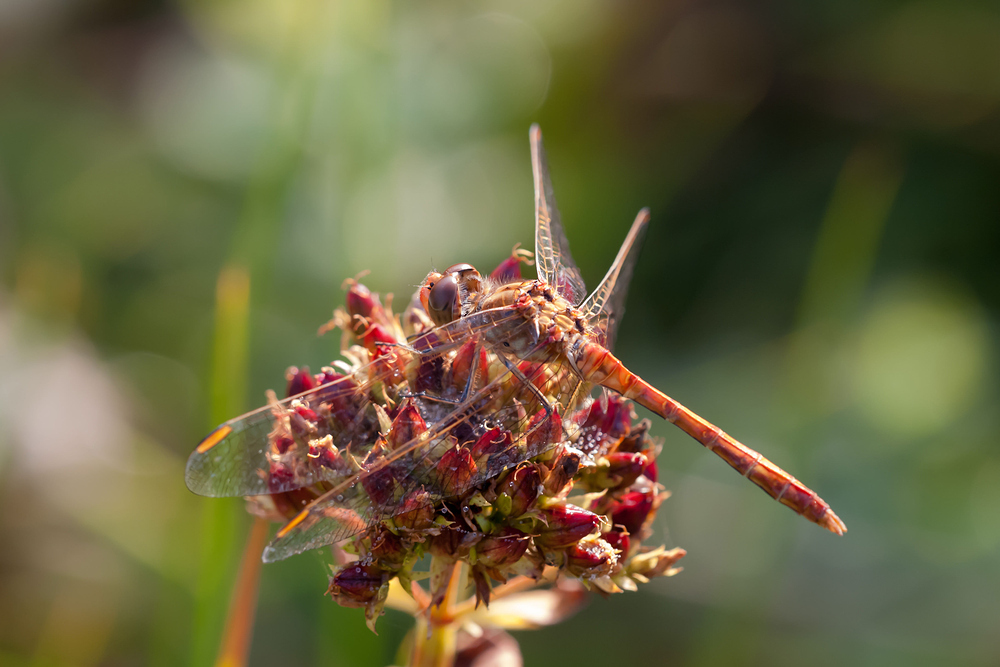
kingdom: Animalia
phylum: Arthropoda
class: Insecta
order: Odonata
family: Libellulidae
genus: Sympetrum
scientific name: Sympetrum meridionale
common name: Southern darter
